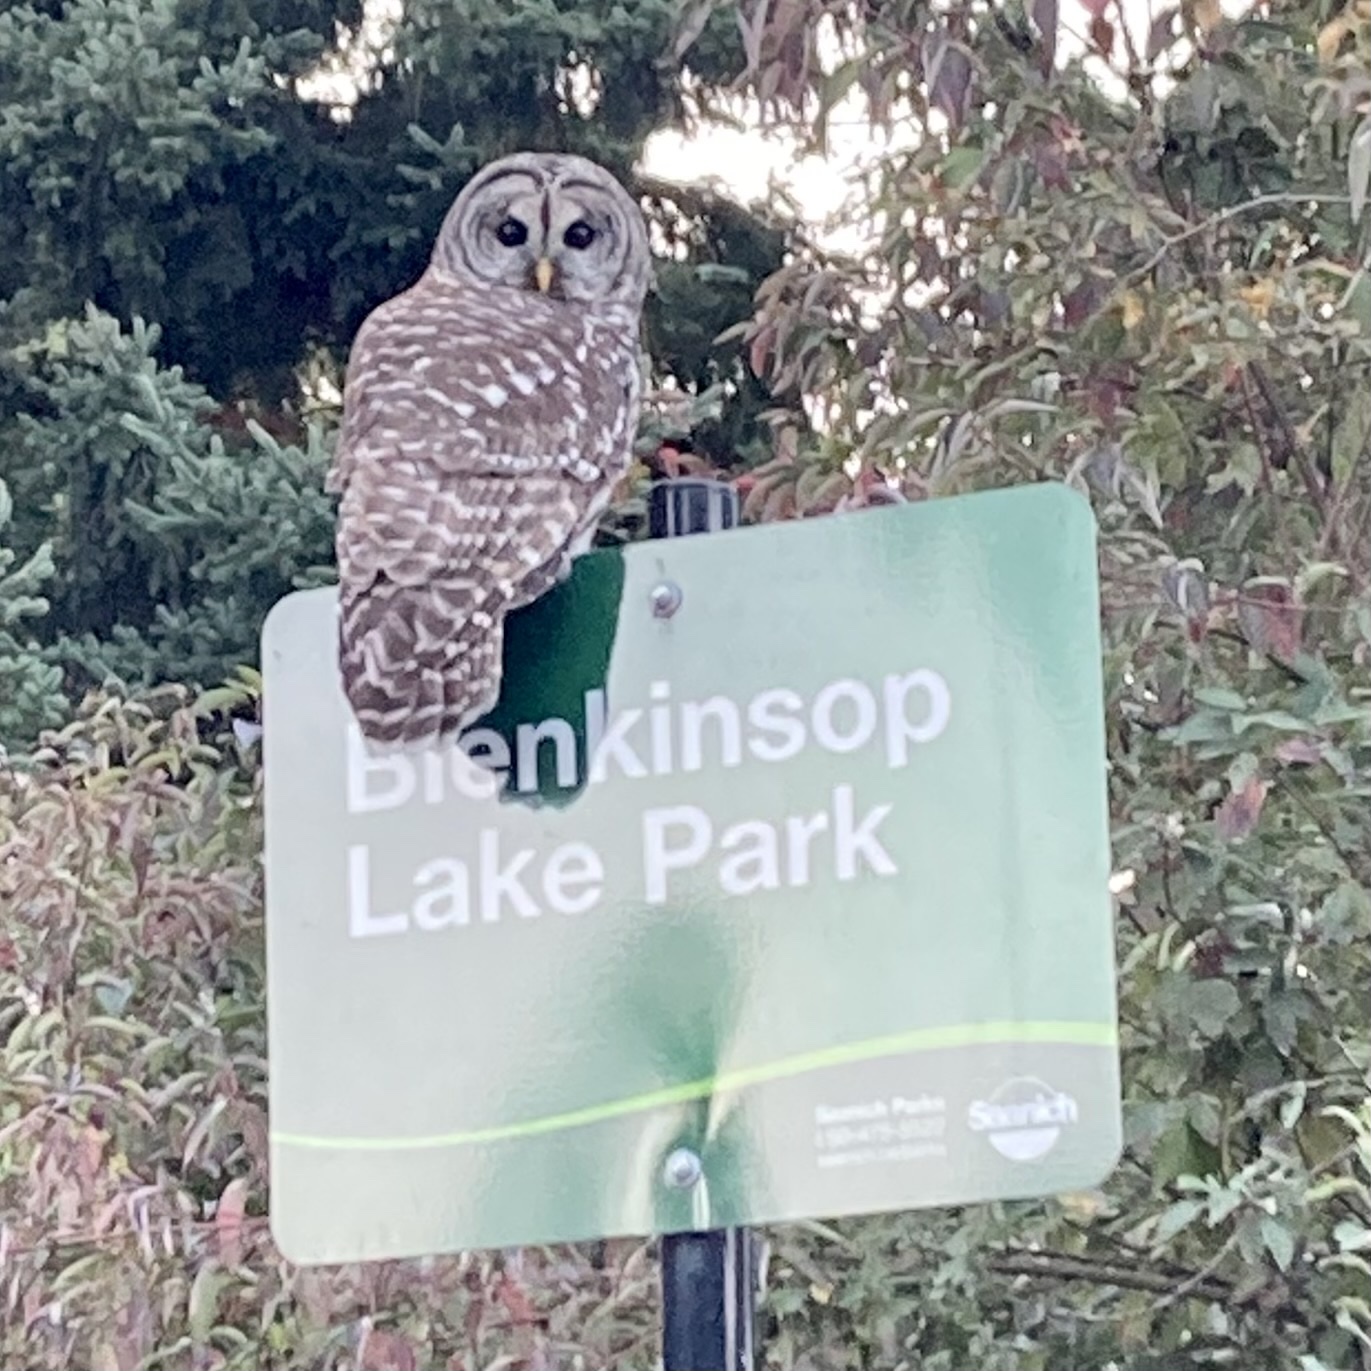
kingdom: Animalia
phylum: Chordata
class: Aves
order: Strigiformes
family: Strigidae
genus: Strix
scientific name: Strix varia
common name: Barred owl
